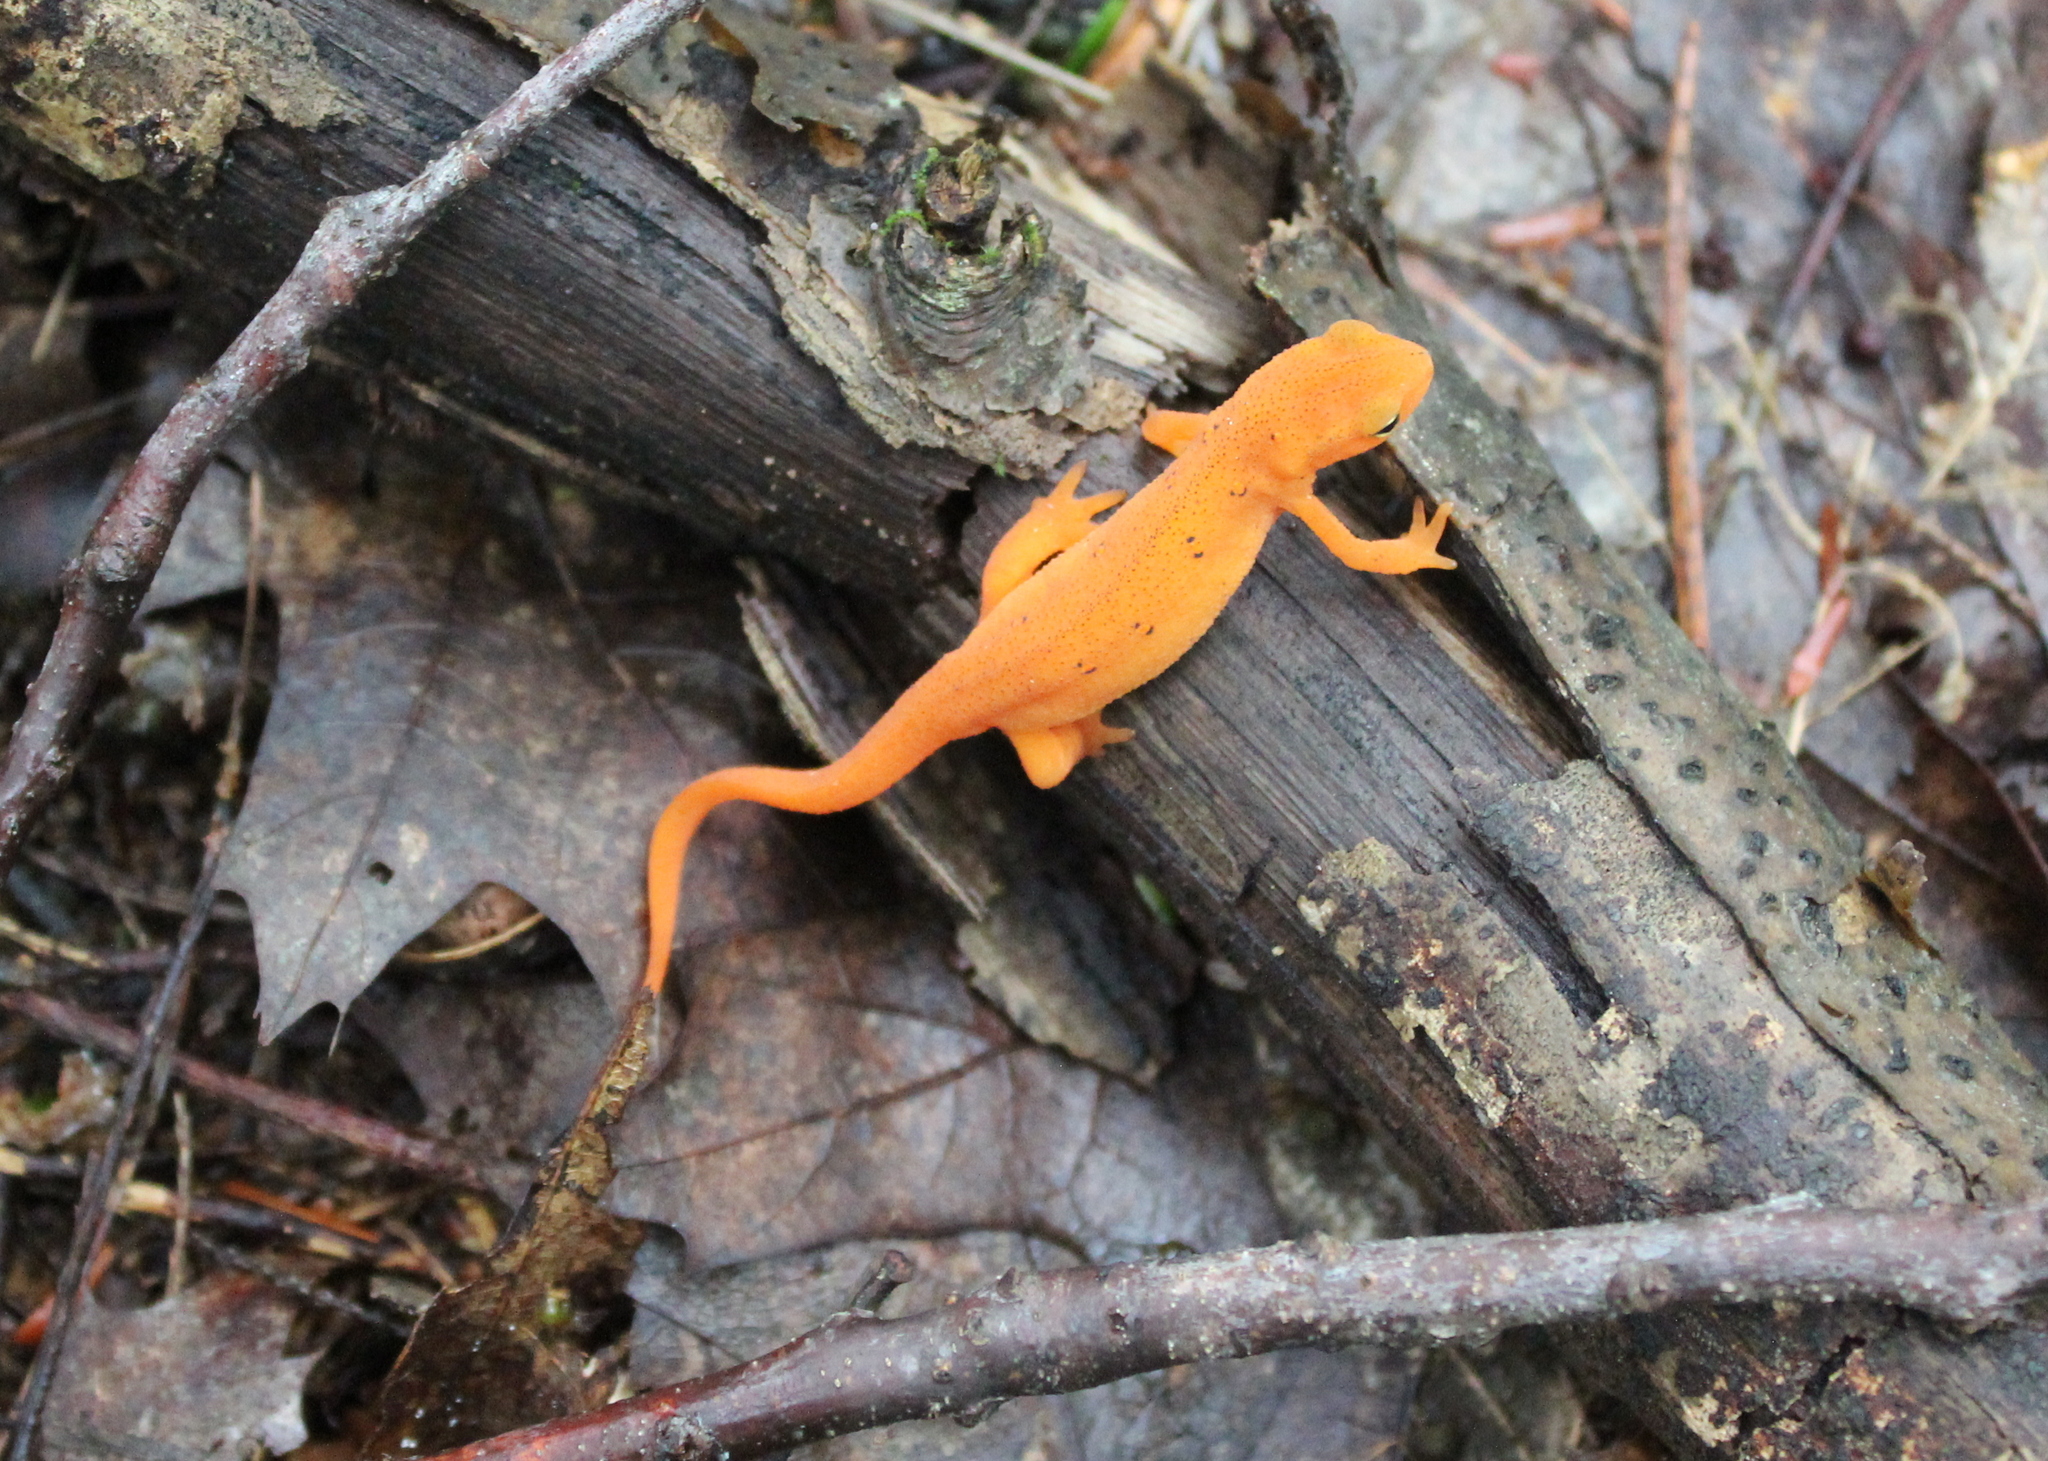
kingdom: Animalia
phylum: Chordata
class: Amphibia
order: Caudata
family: Salamandridae
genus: Notophthalmus
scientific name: Notophthalmus viridescens
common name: Eastern newt
